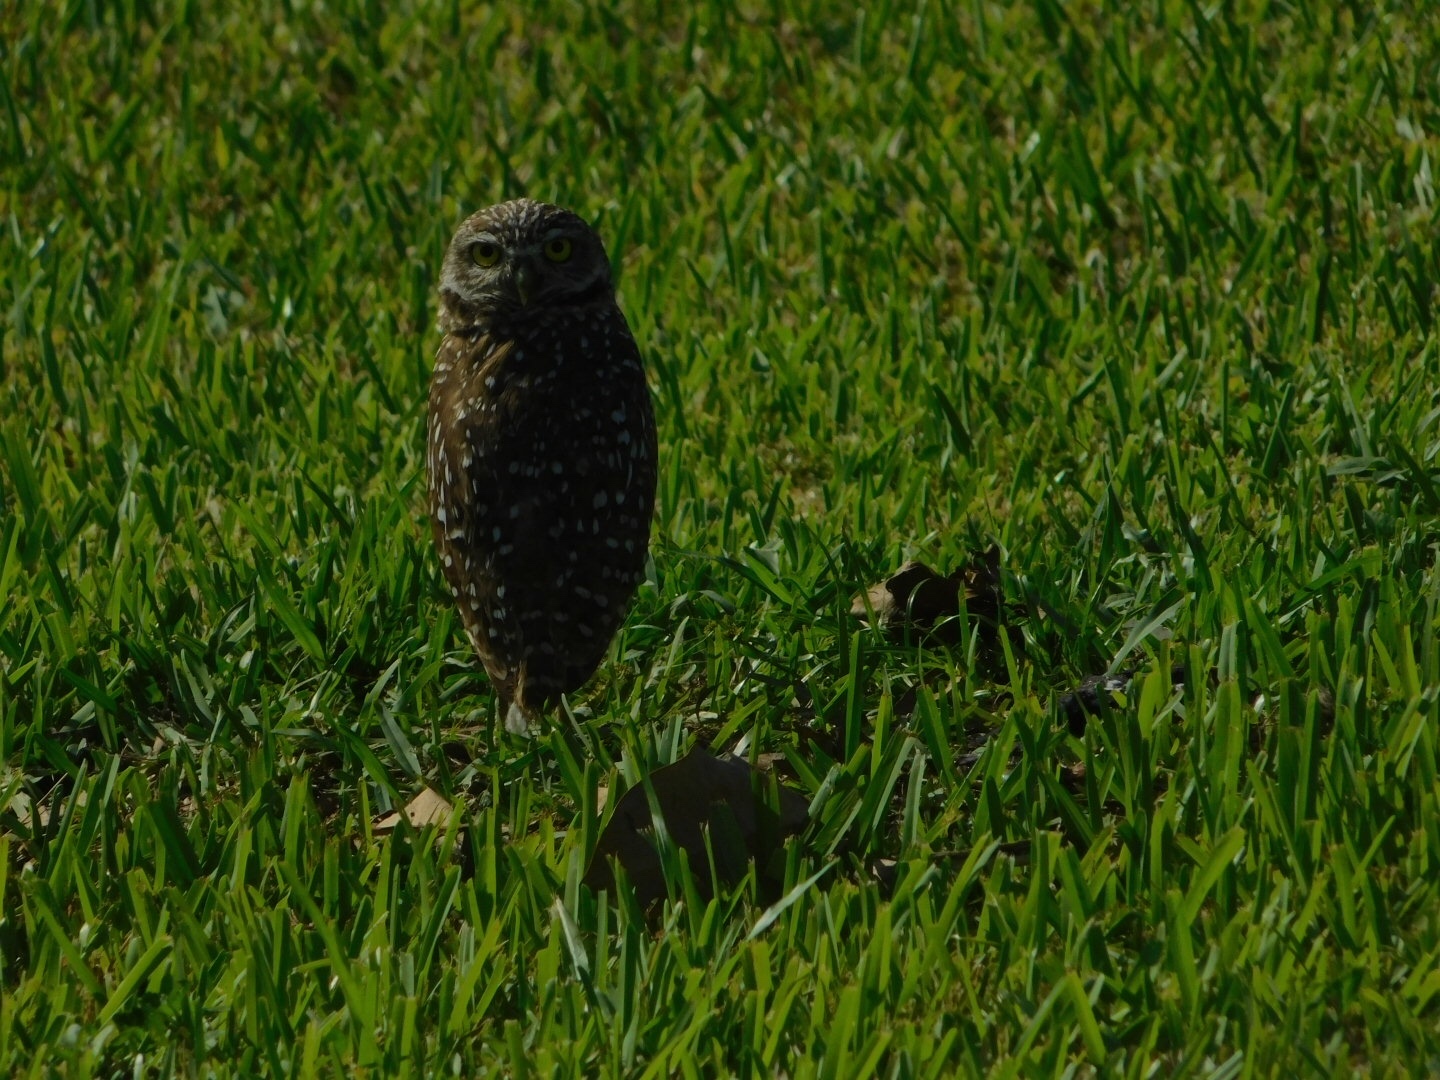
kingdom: Animalia
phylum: Chordata
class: Aves
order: Strigiformes
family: Strigidae
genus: Athene
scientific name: Athene cunicularia
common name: Burrowing owl
